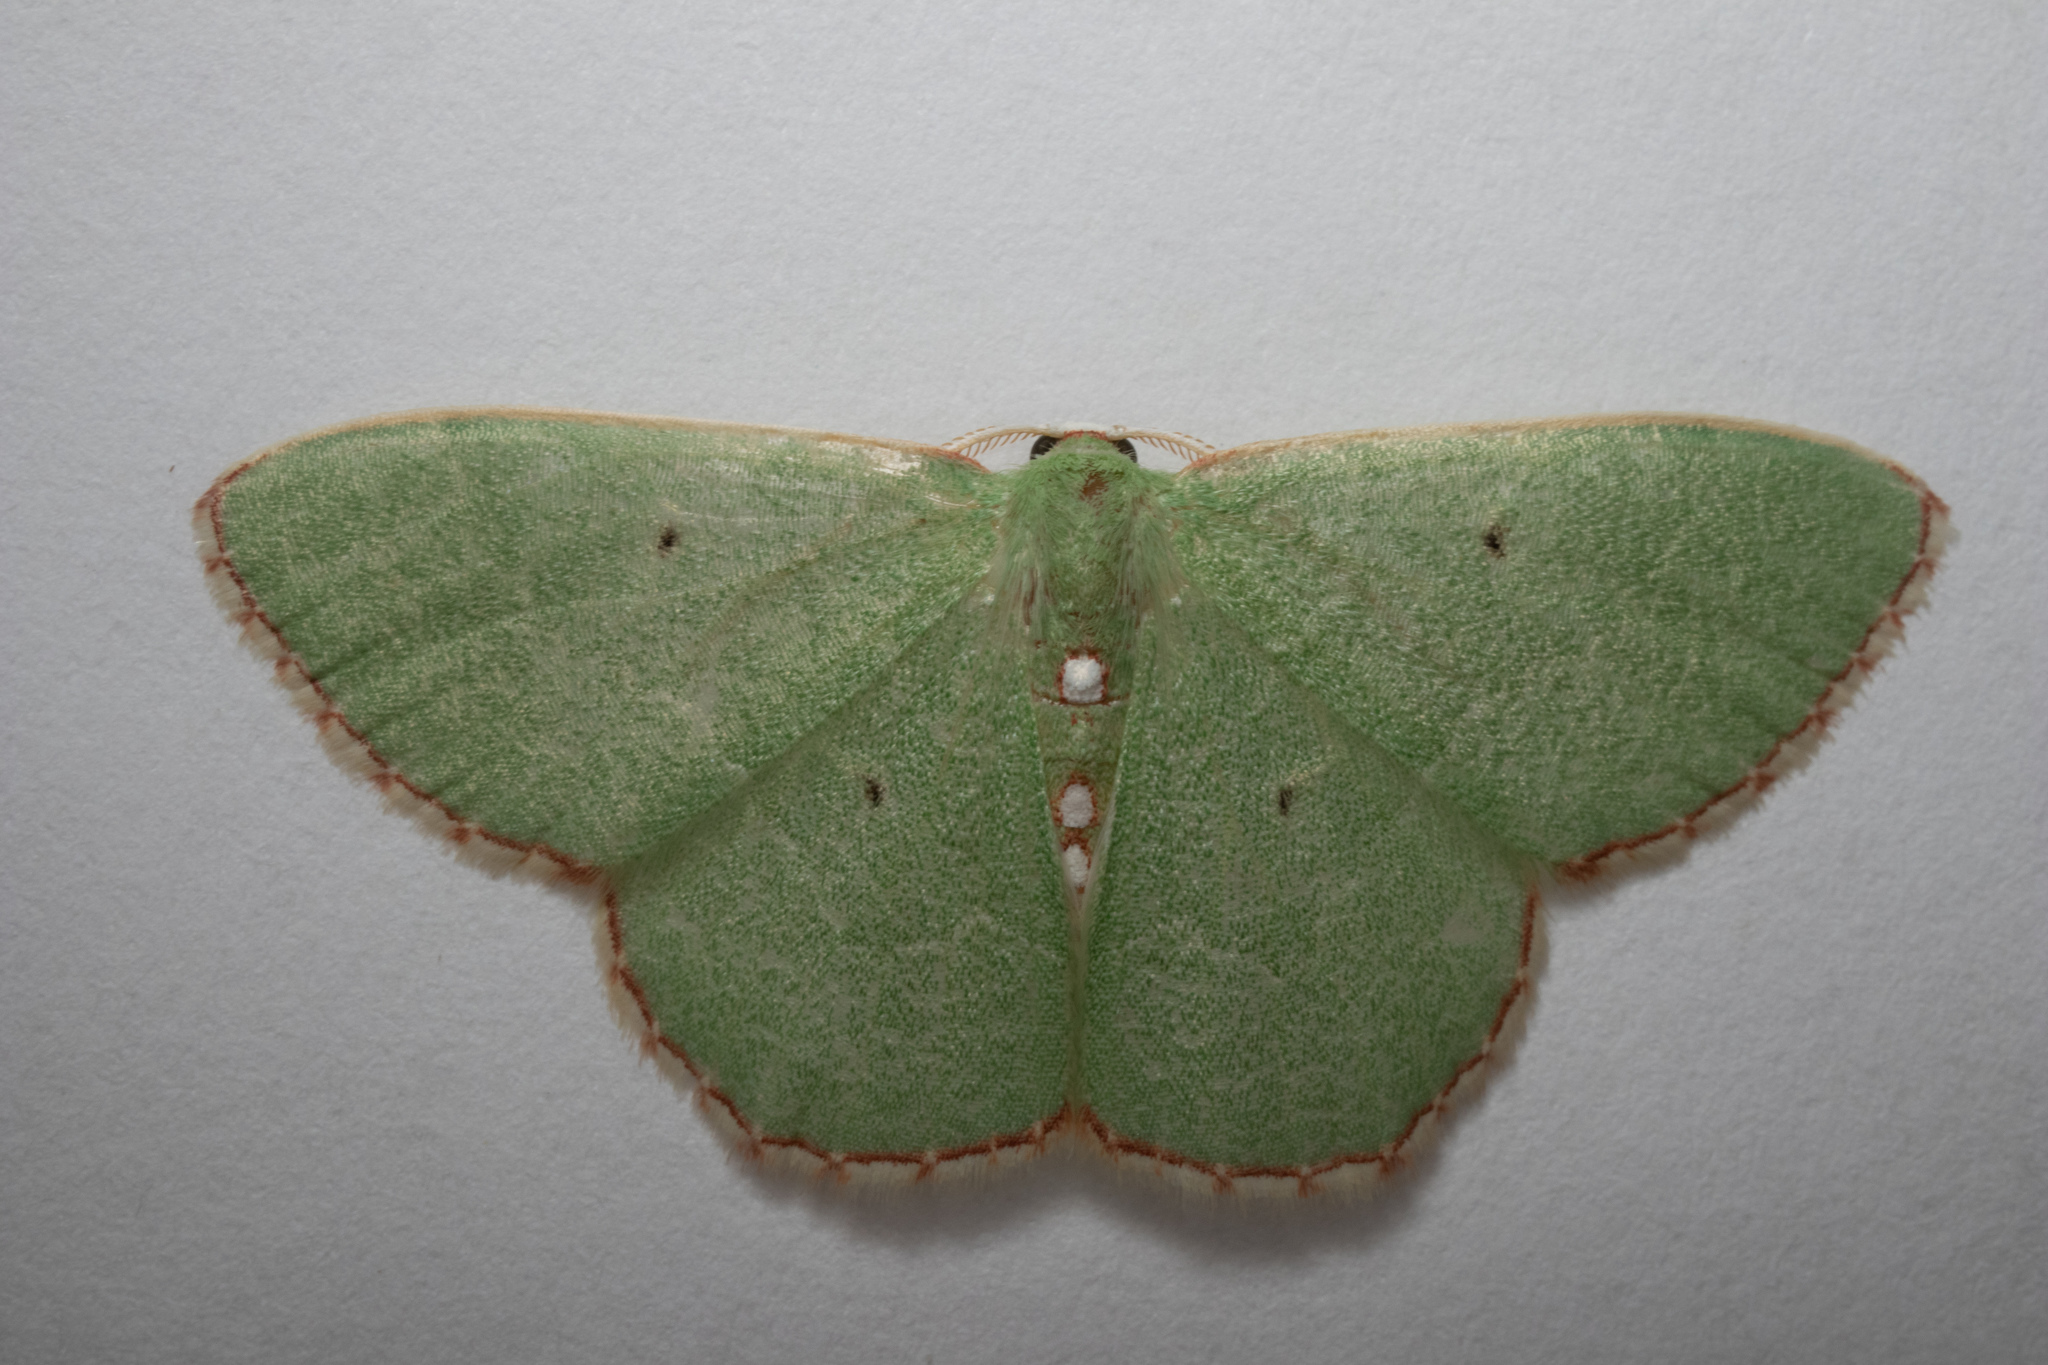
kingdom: Animalia
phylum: Arthropoda
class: Insecta
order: Lepidoptera
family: Geometridae
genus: Nemoria
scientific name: Nemoria lixaria
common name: Red-bordered emerald
